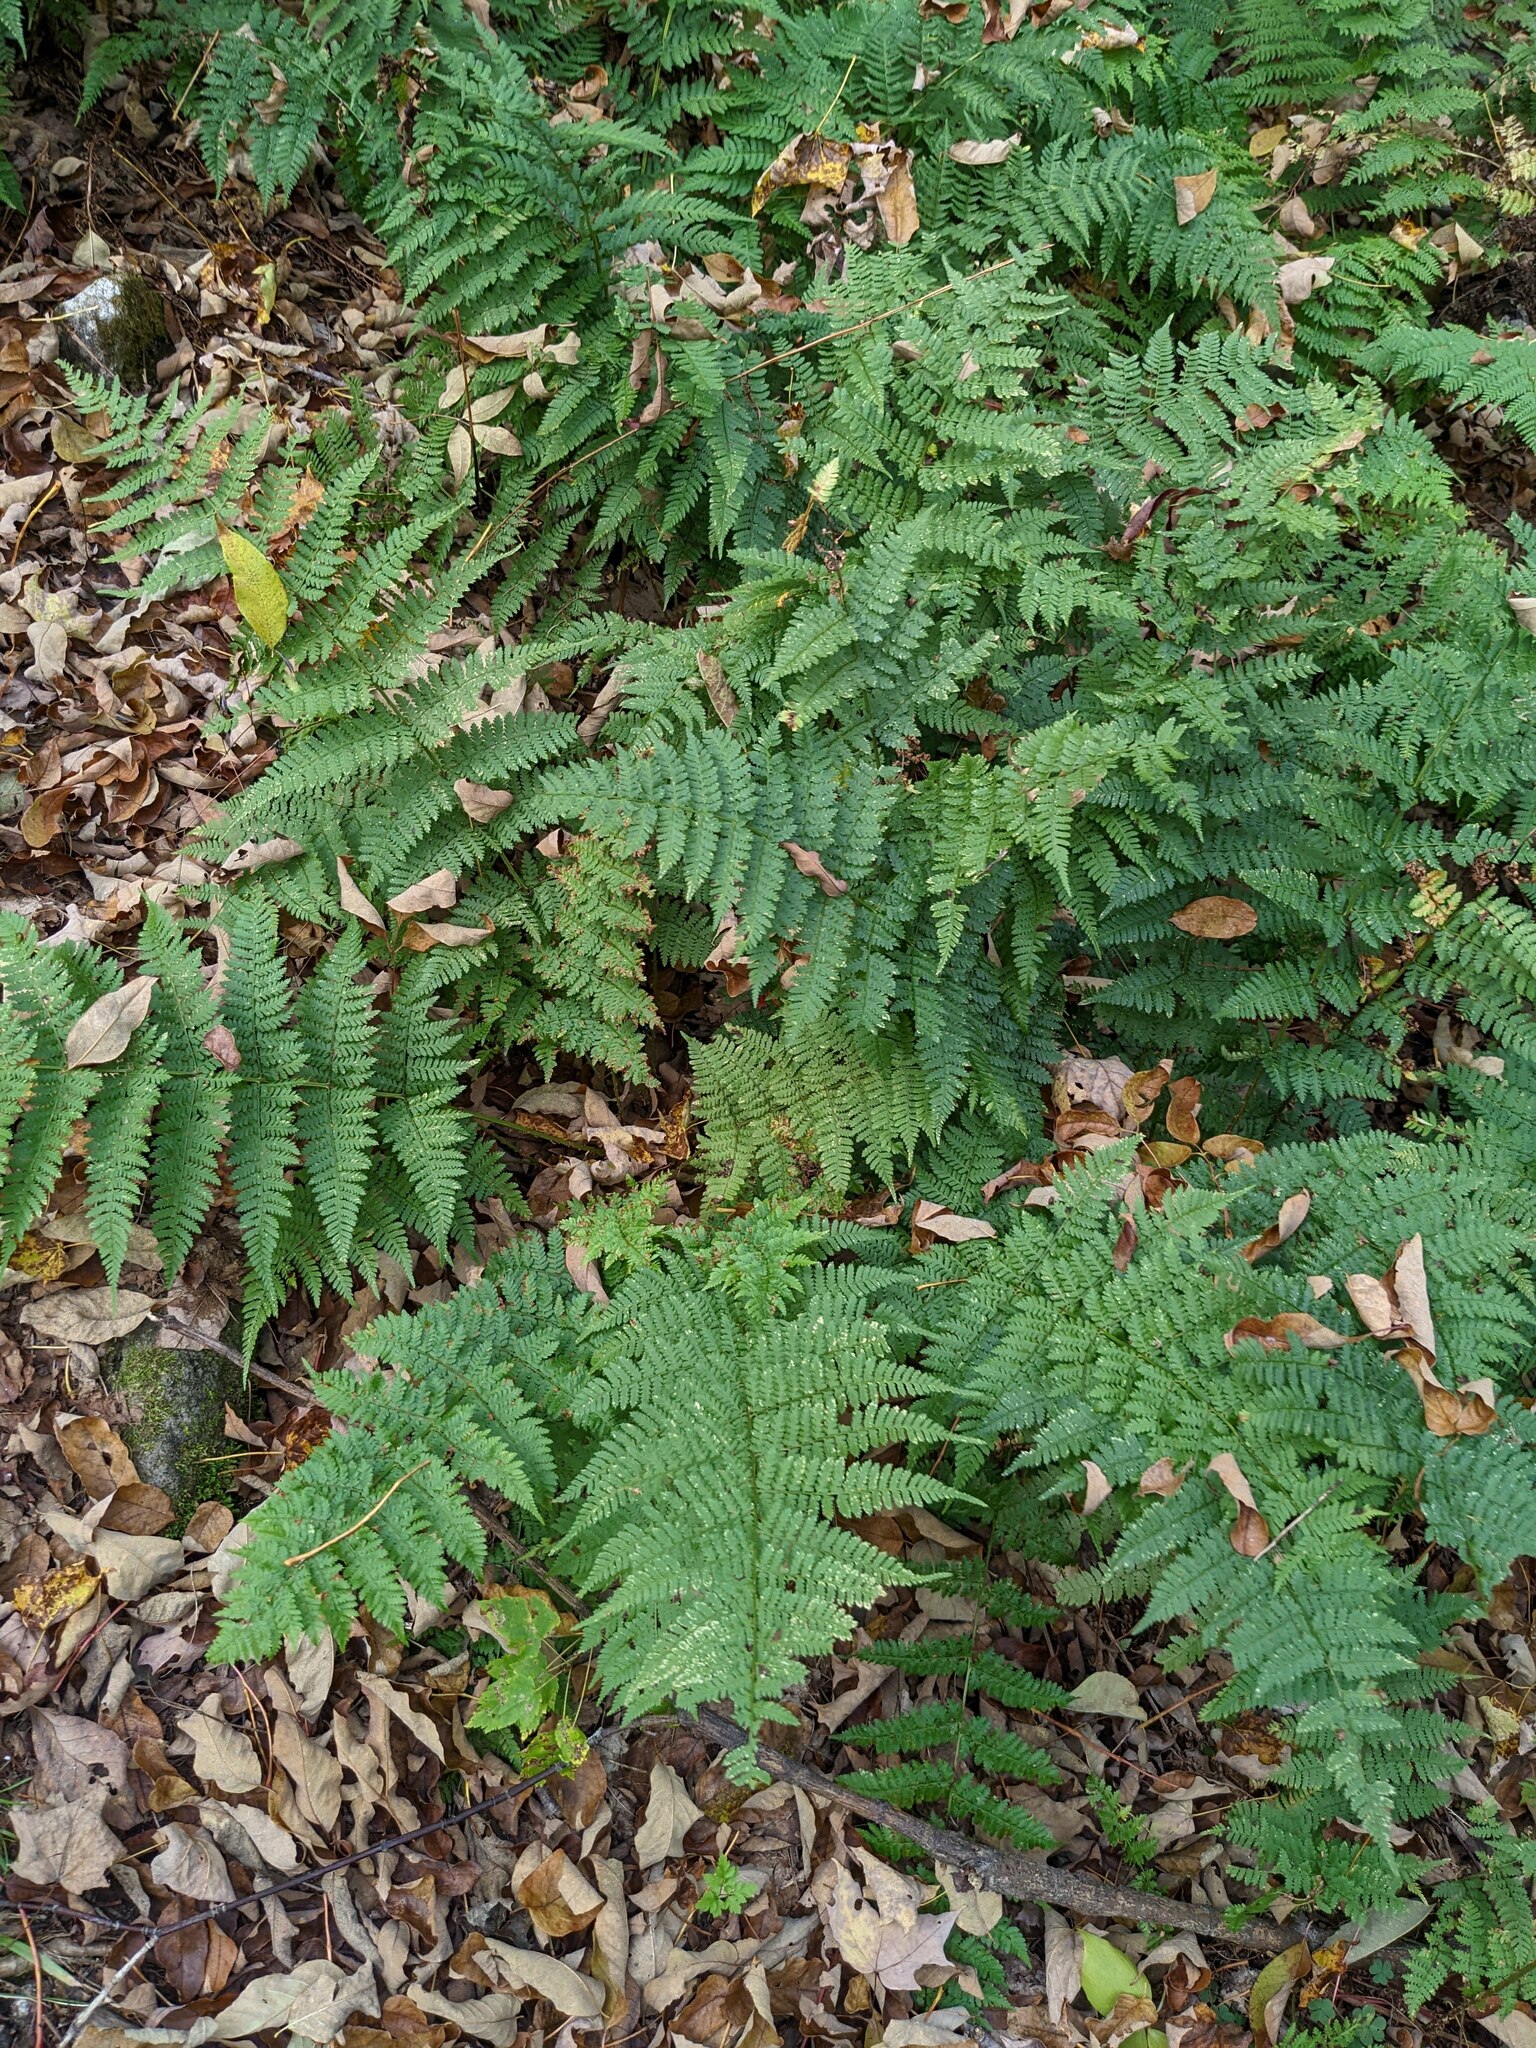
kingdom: Plantae
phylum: Tracheophyta
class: Polypodiopsida
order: Polypodiales
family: Dryopteridaceae
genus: Dryopteris
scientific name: Dryopteris intermedia
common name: Evergreen wood fern
